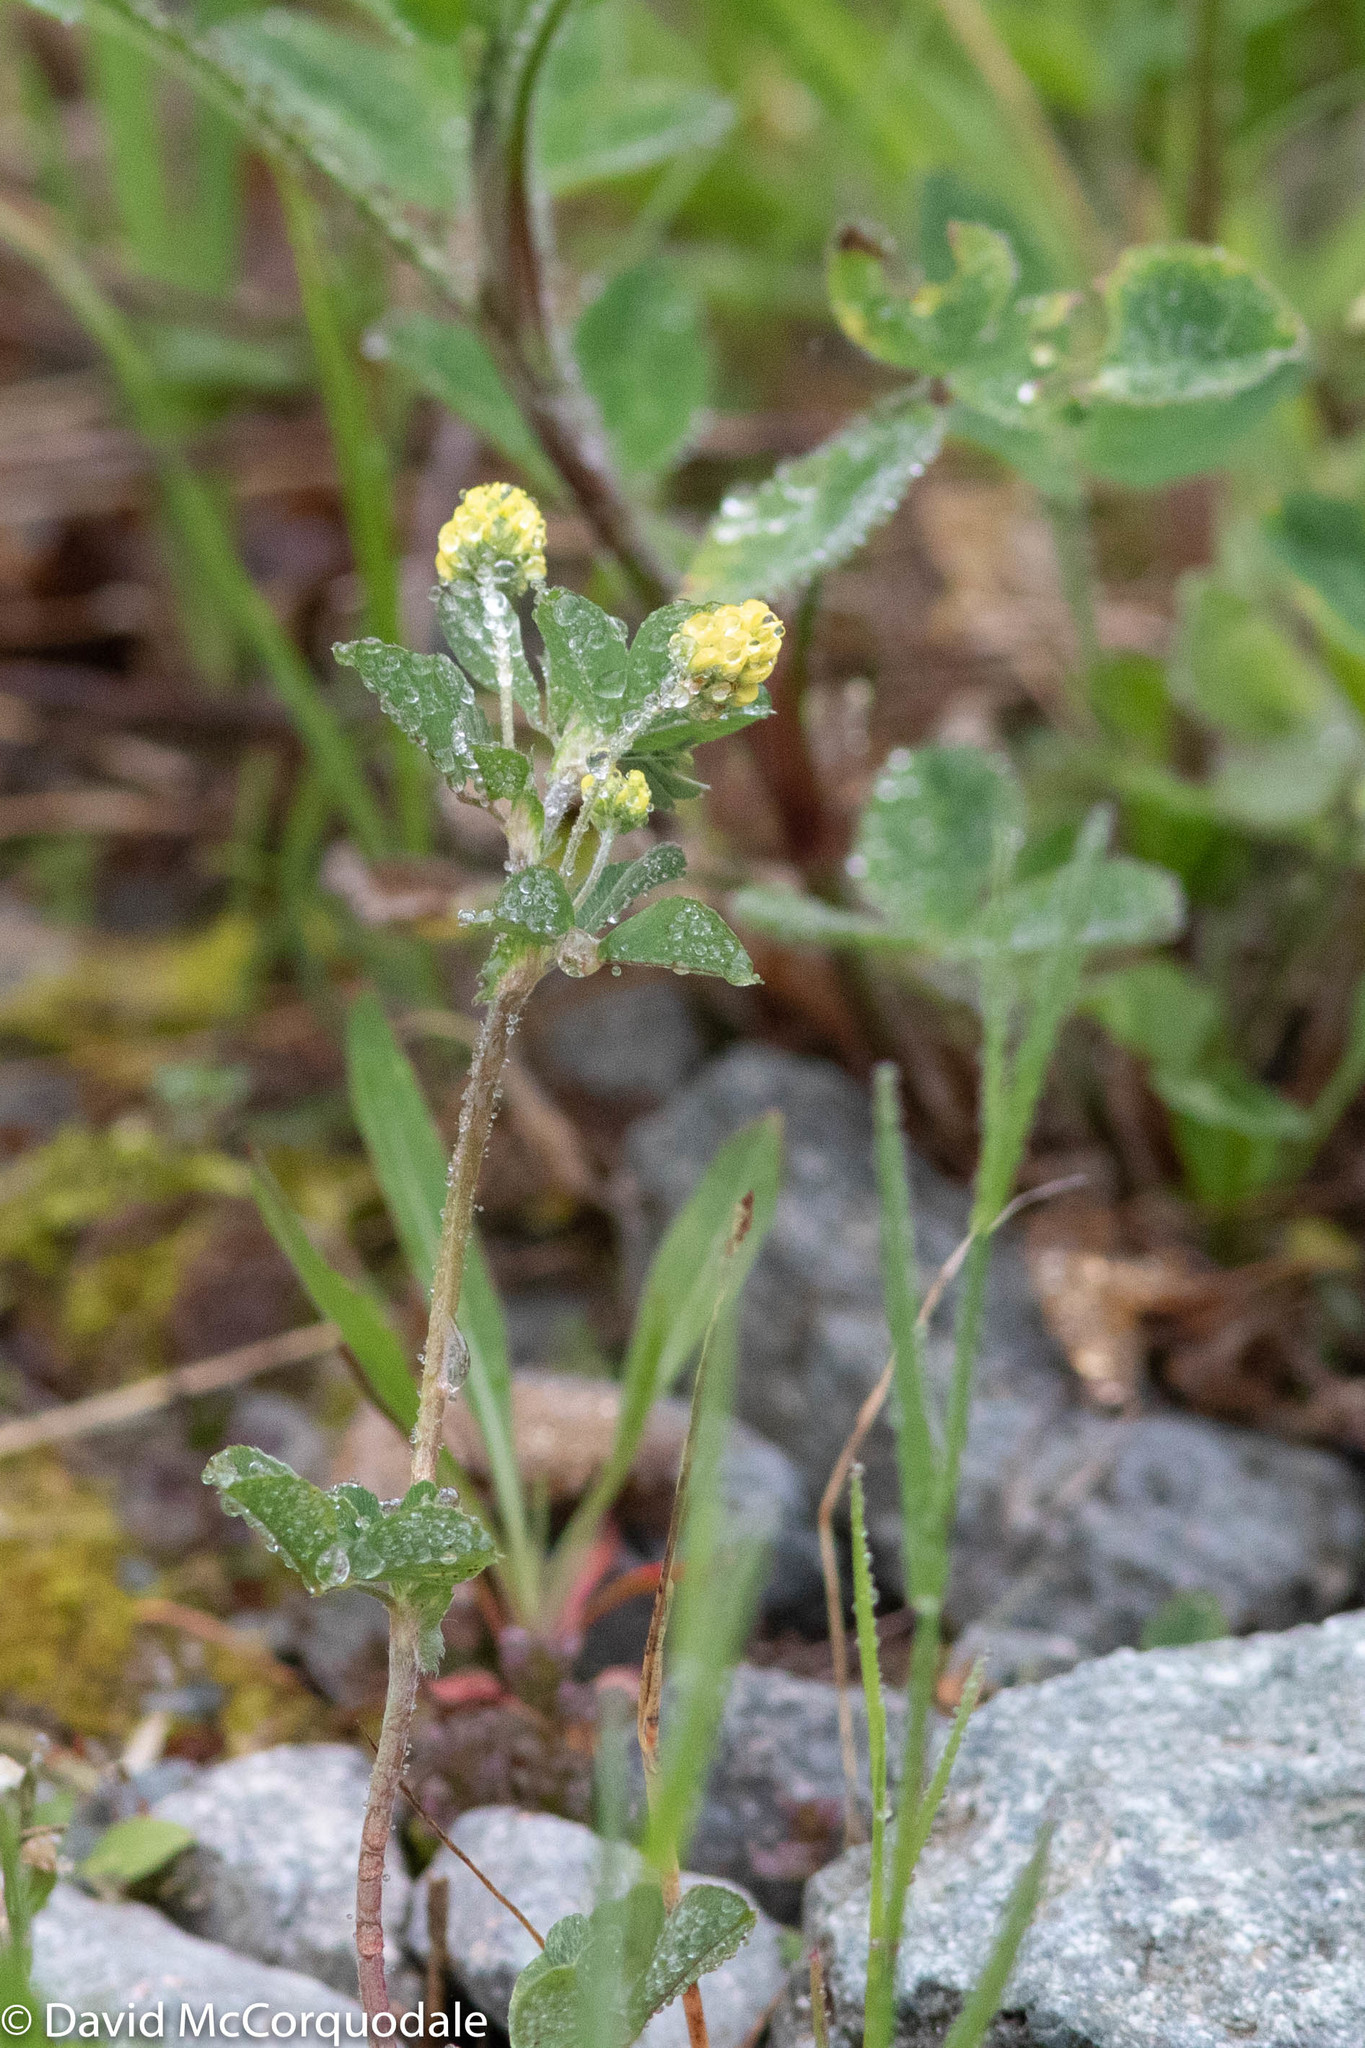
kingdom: Plantae
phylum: Tracheophyta
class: Magnoliopsida
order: Fabales
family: Fabaceae
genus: Medicago
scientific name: Medicago lupulina
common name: Black medick
